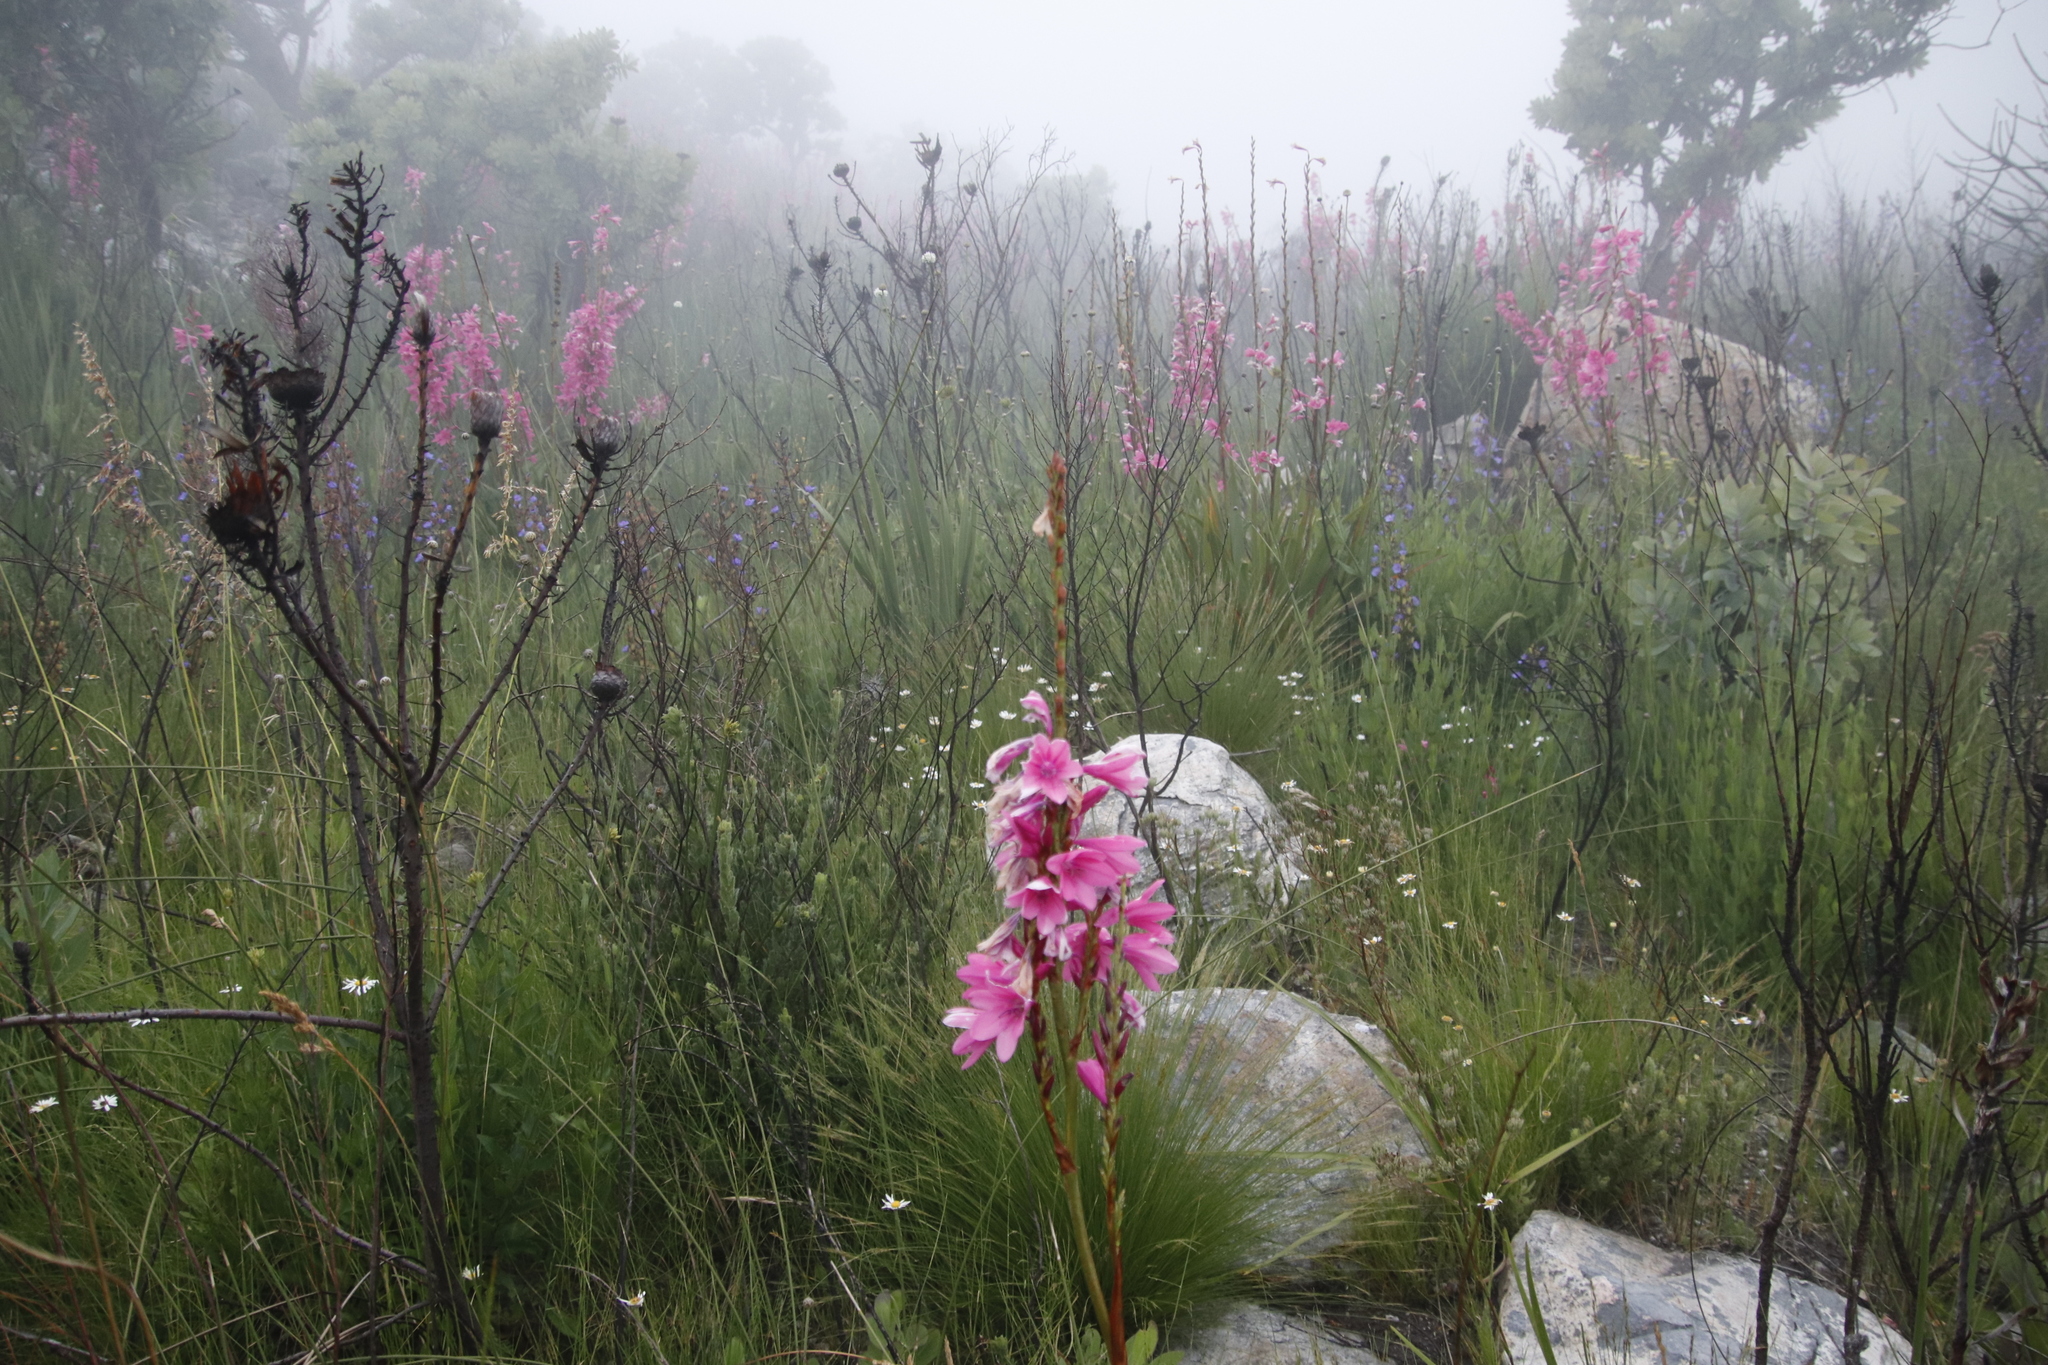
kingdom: Plantae
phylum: Tracheophyta
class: Liliopsida
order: Asparagales
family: Iridaceae
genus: Watsonia
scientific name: Watsonia borbonica
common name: Bugle-lily
